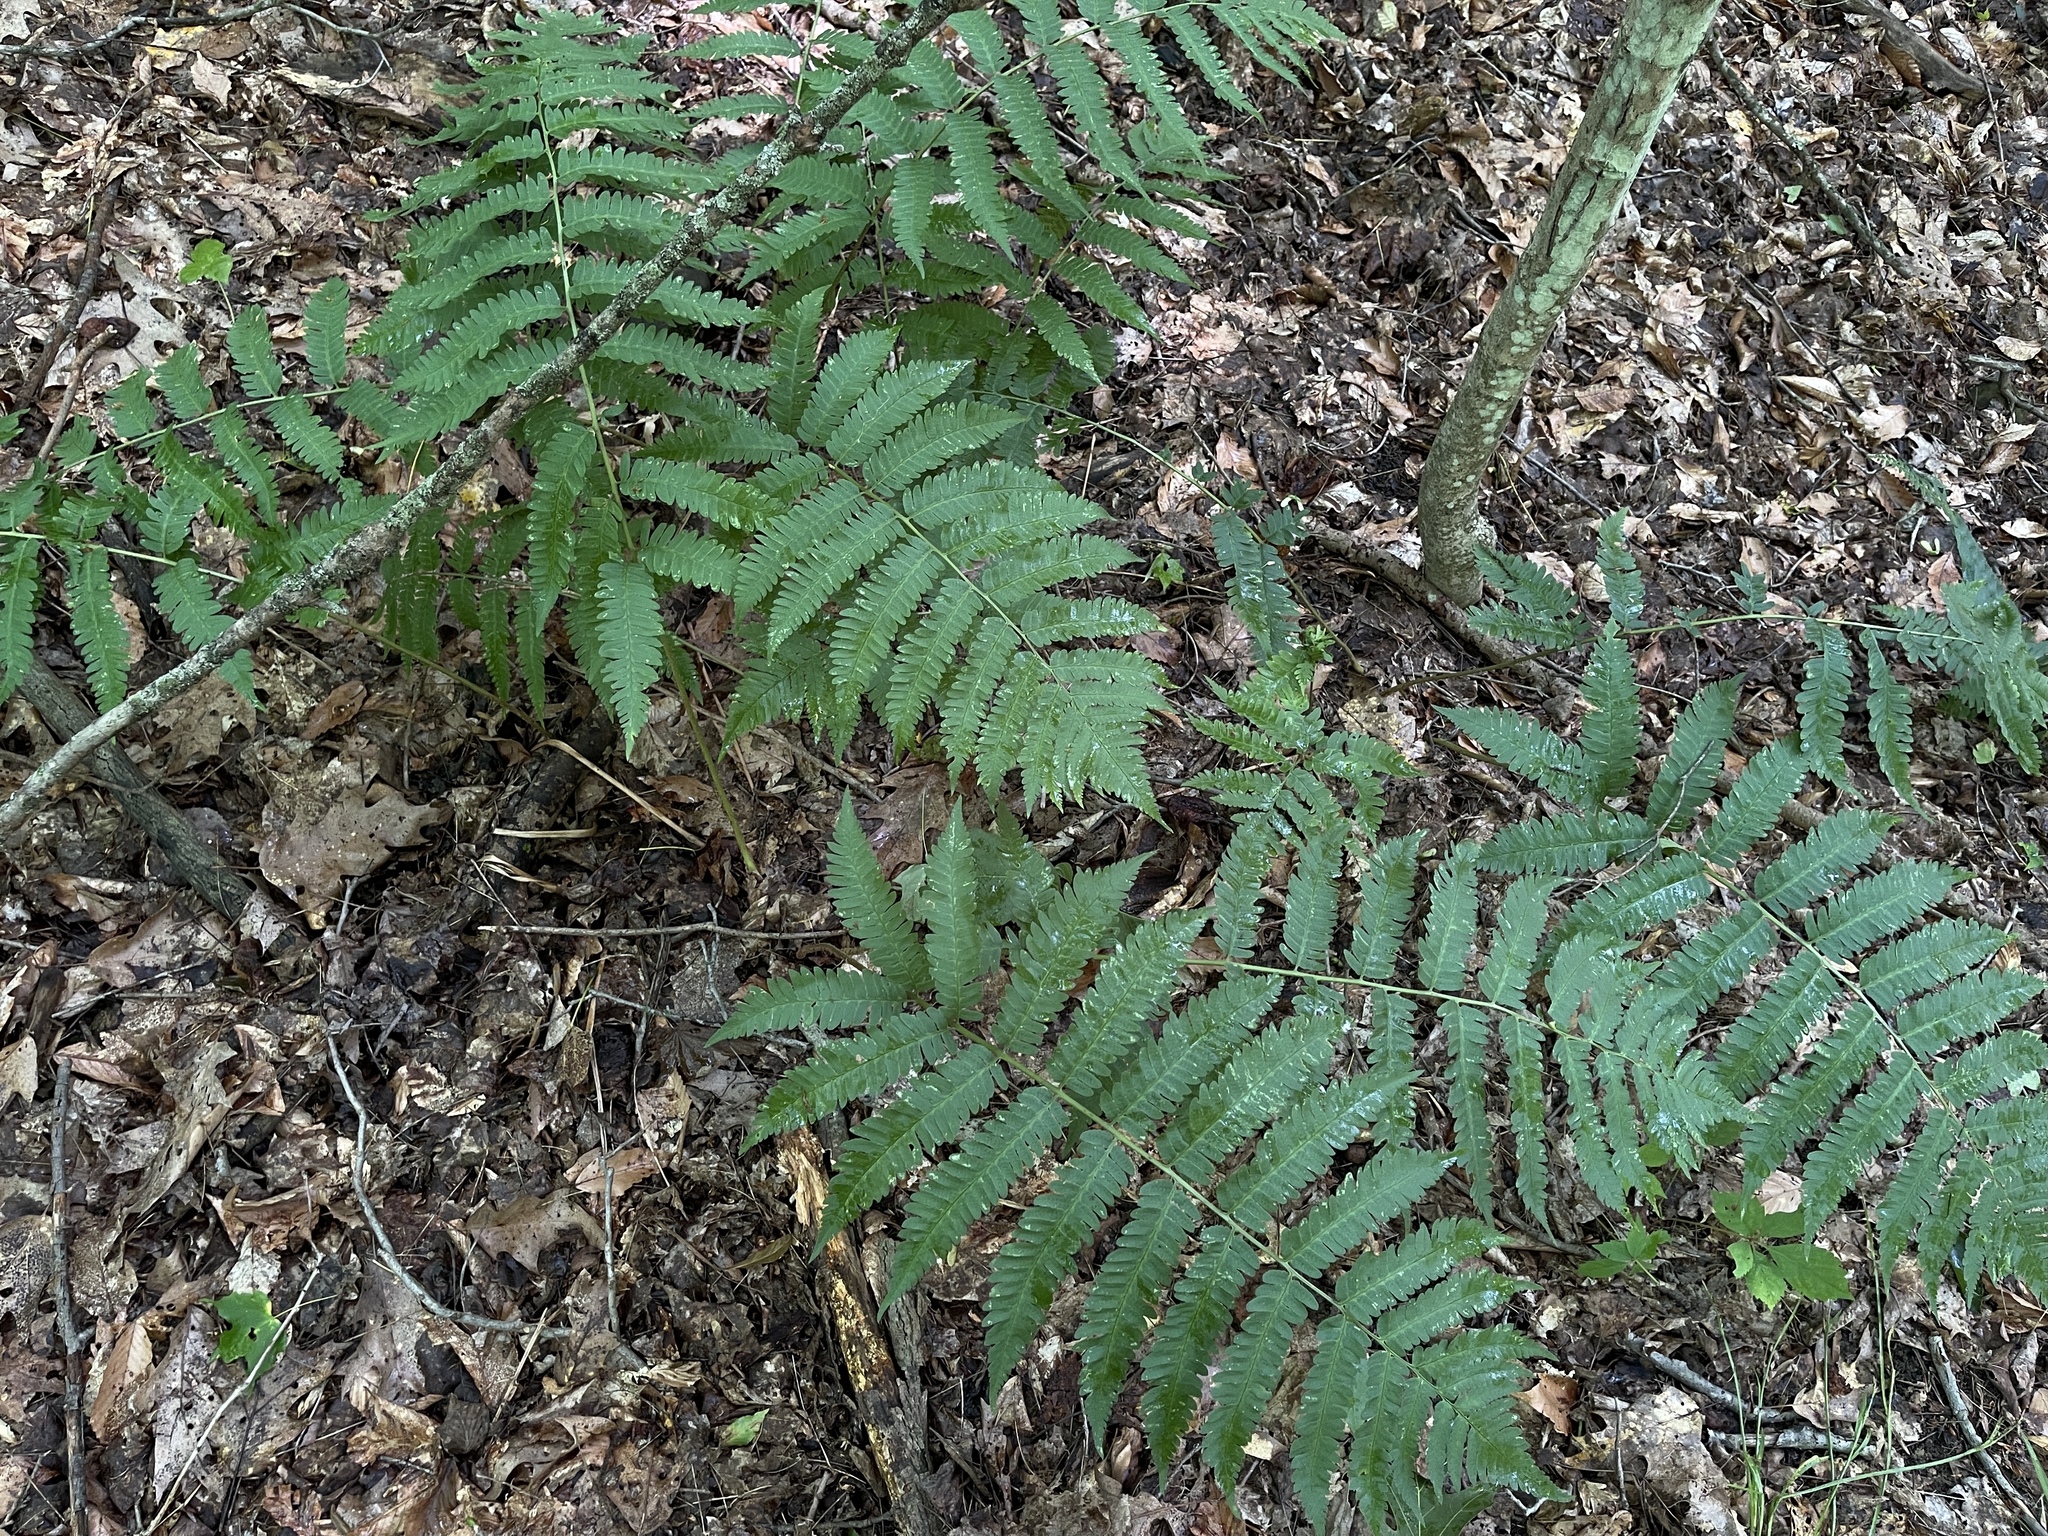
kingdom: Plantae
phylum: Tracheophyta
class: Polypodiopsida
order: Polypodiales
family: Dryopteridaceae
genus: Dryopteris
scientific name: Dryopteris goldieana
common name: Goldie's fern
